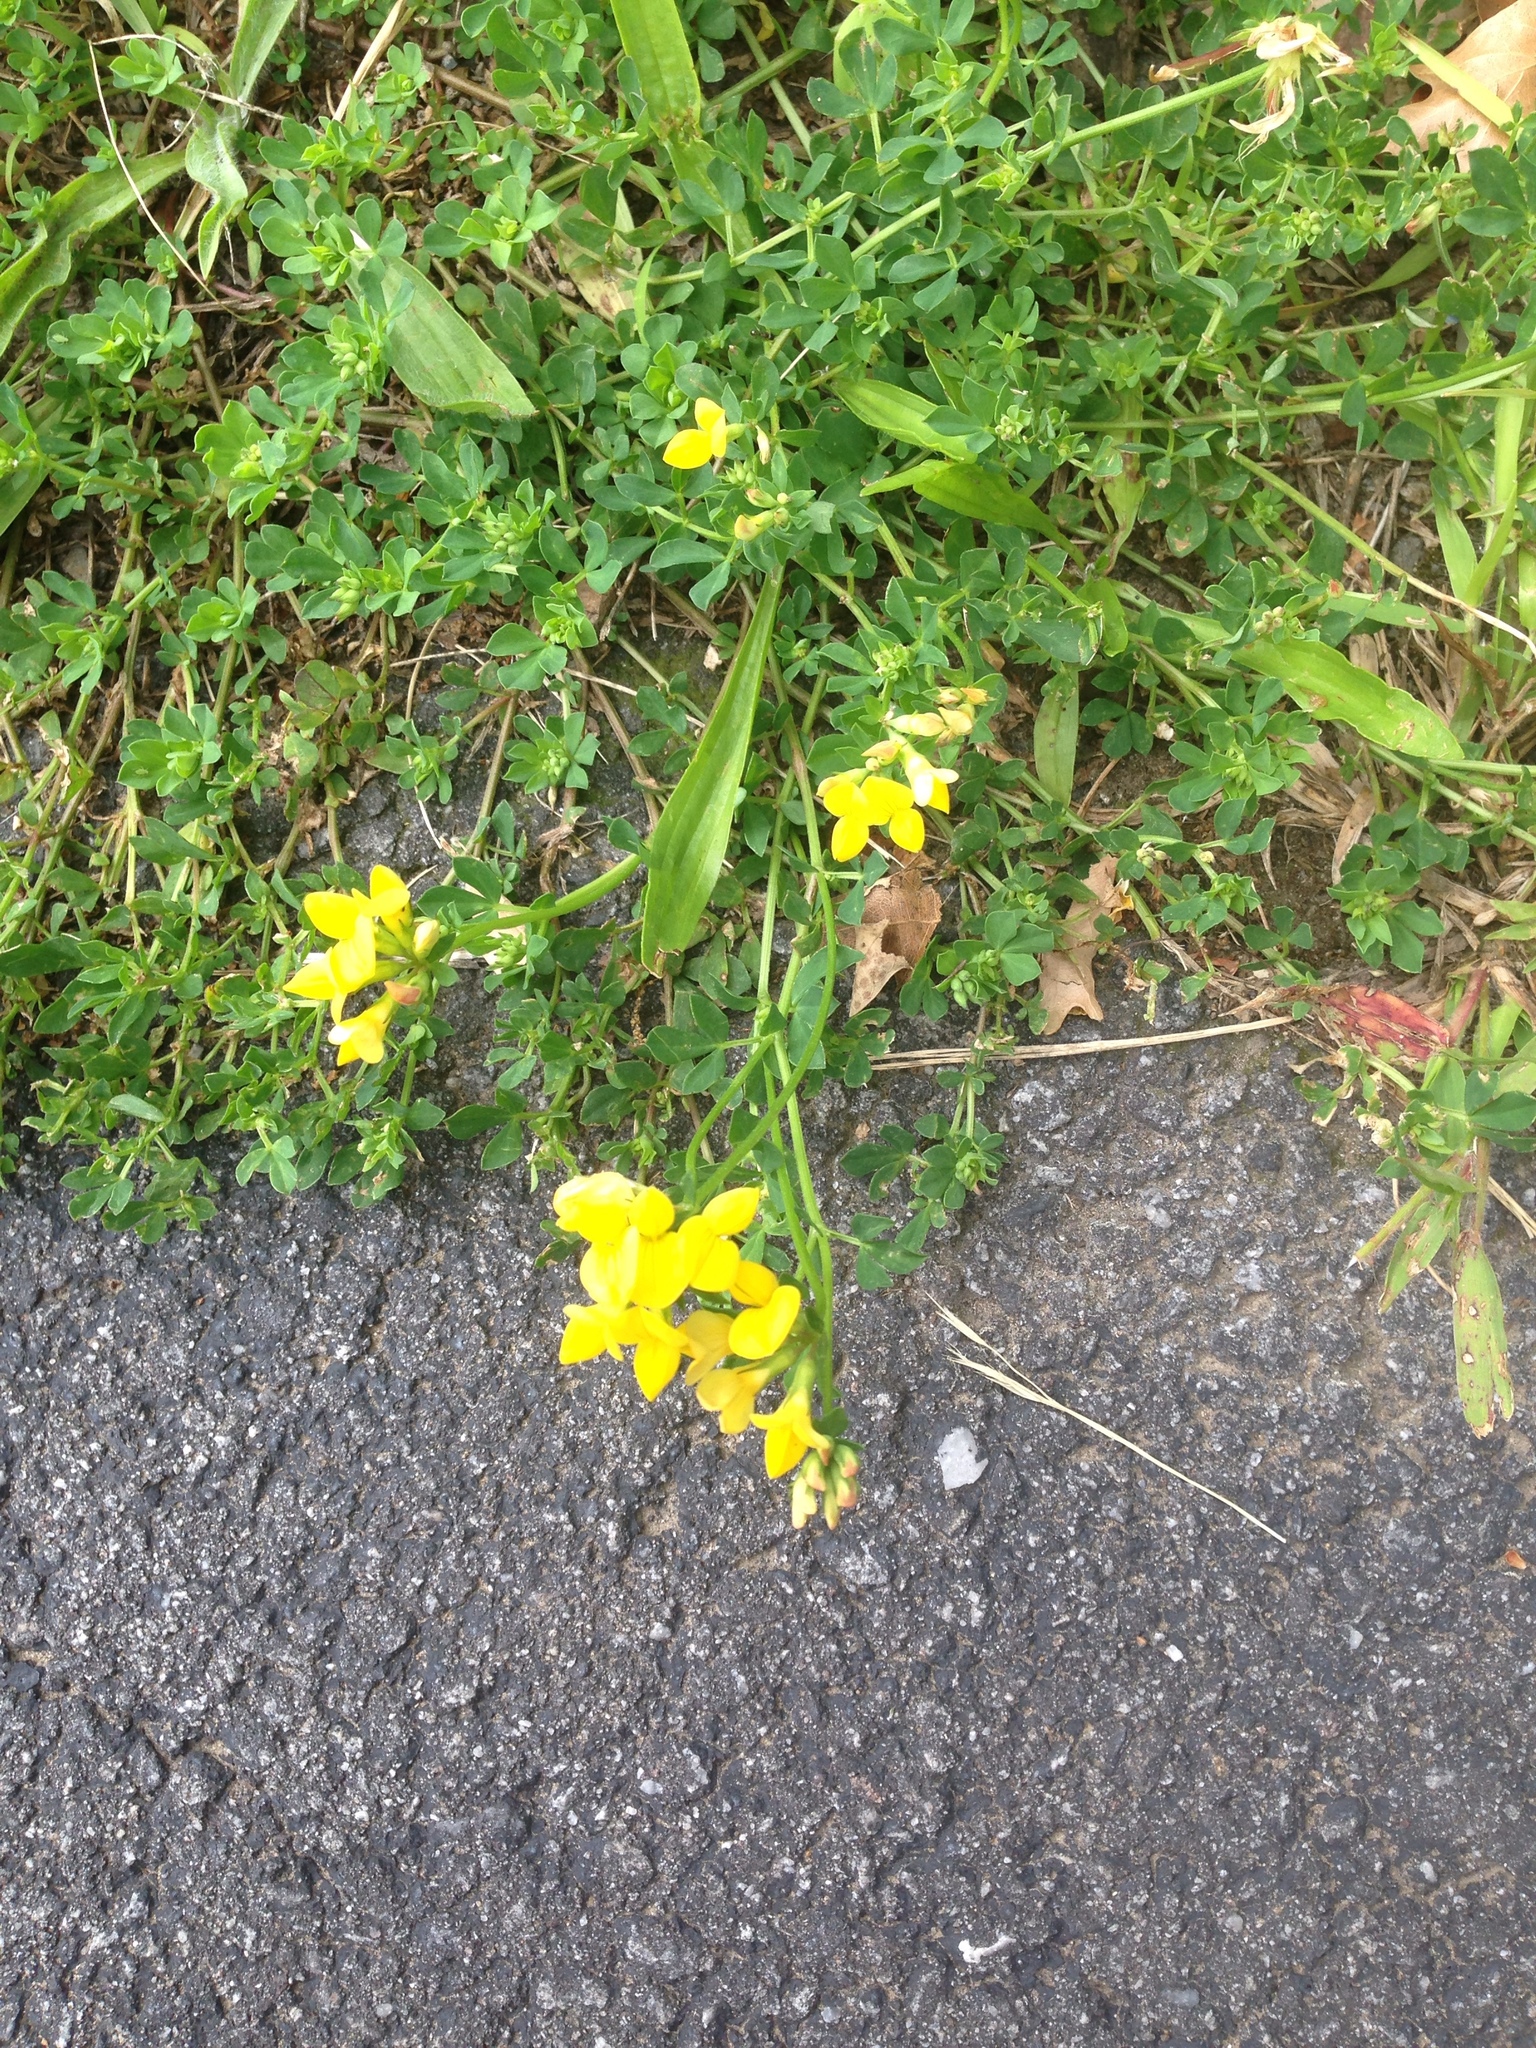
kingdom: Plantae
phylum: Tracheophyta
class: Magnoliopsida
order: Fabales
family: Fabaceae
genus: Lotus
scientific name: Lotus corniculatus
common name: Common bird's-foot-trefoil
